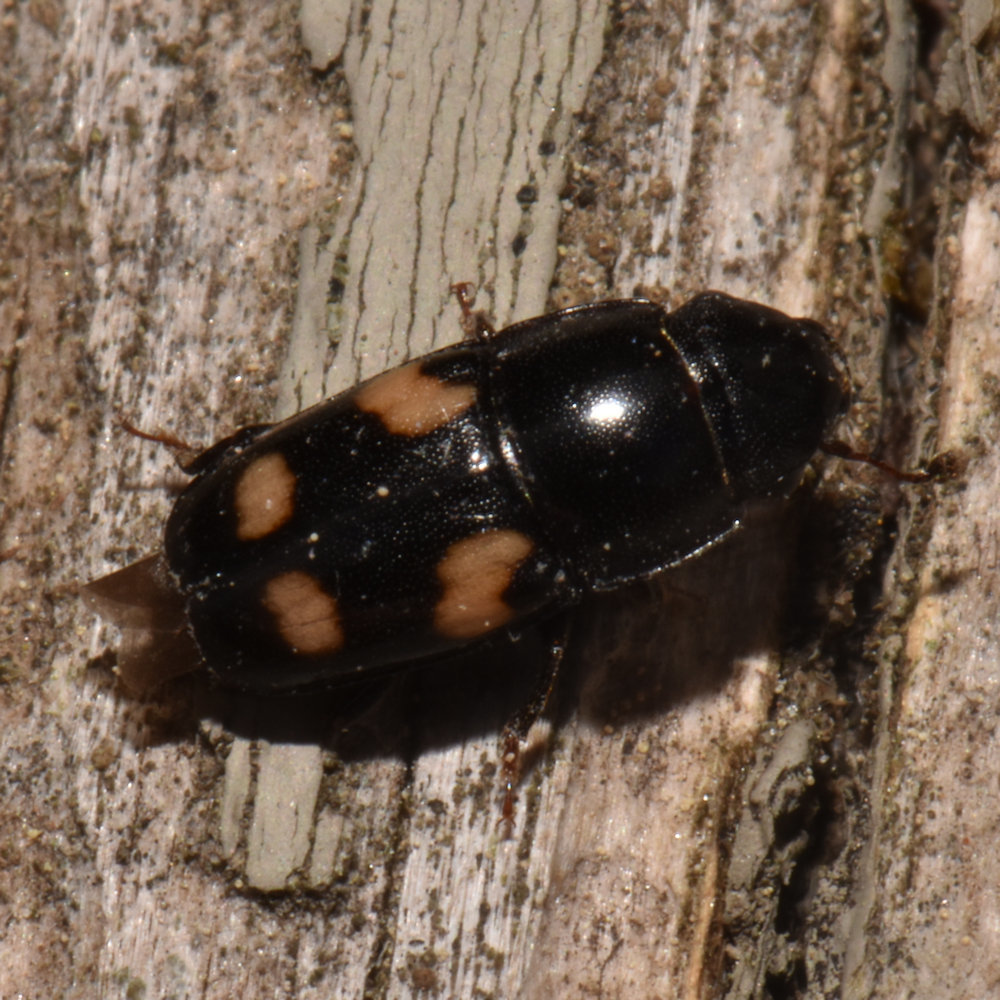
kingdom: Animalia
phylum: Arthropoda
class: Insecta
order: Coleoptera
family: Nitidulidae
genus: Glischrochilus
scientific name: Glischrochilus quadrisignatus
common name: Picnic beetle
